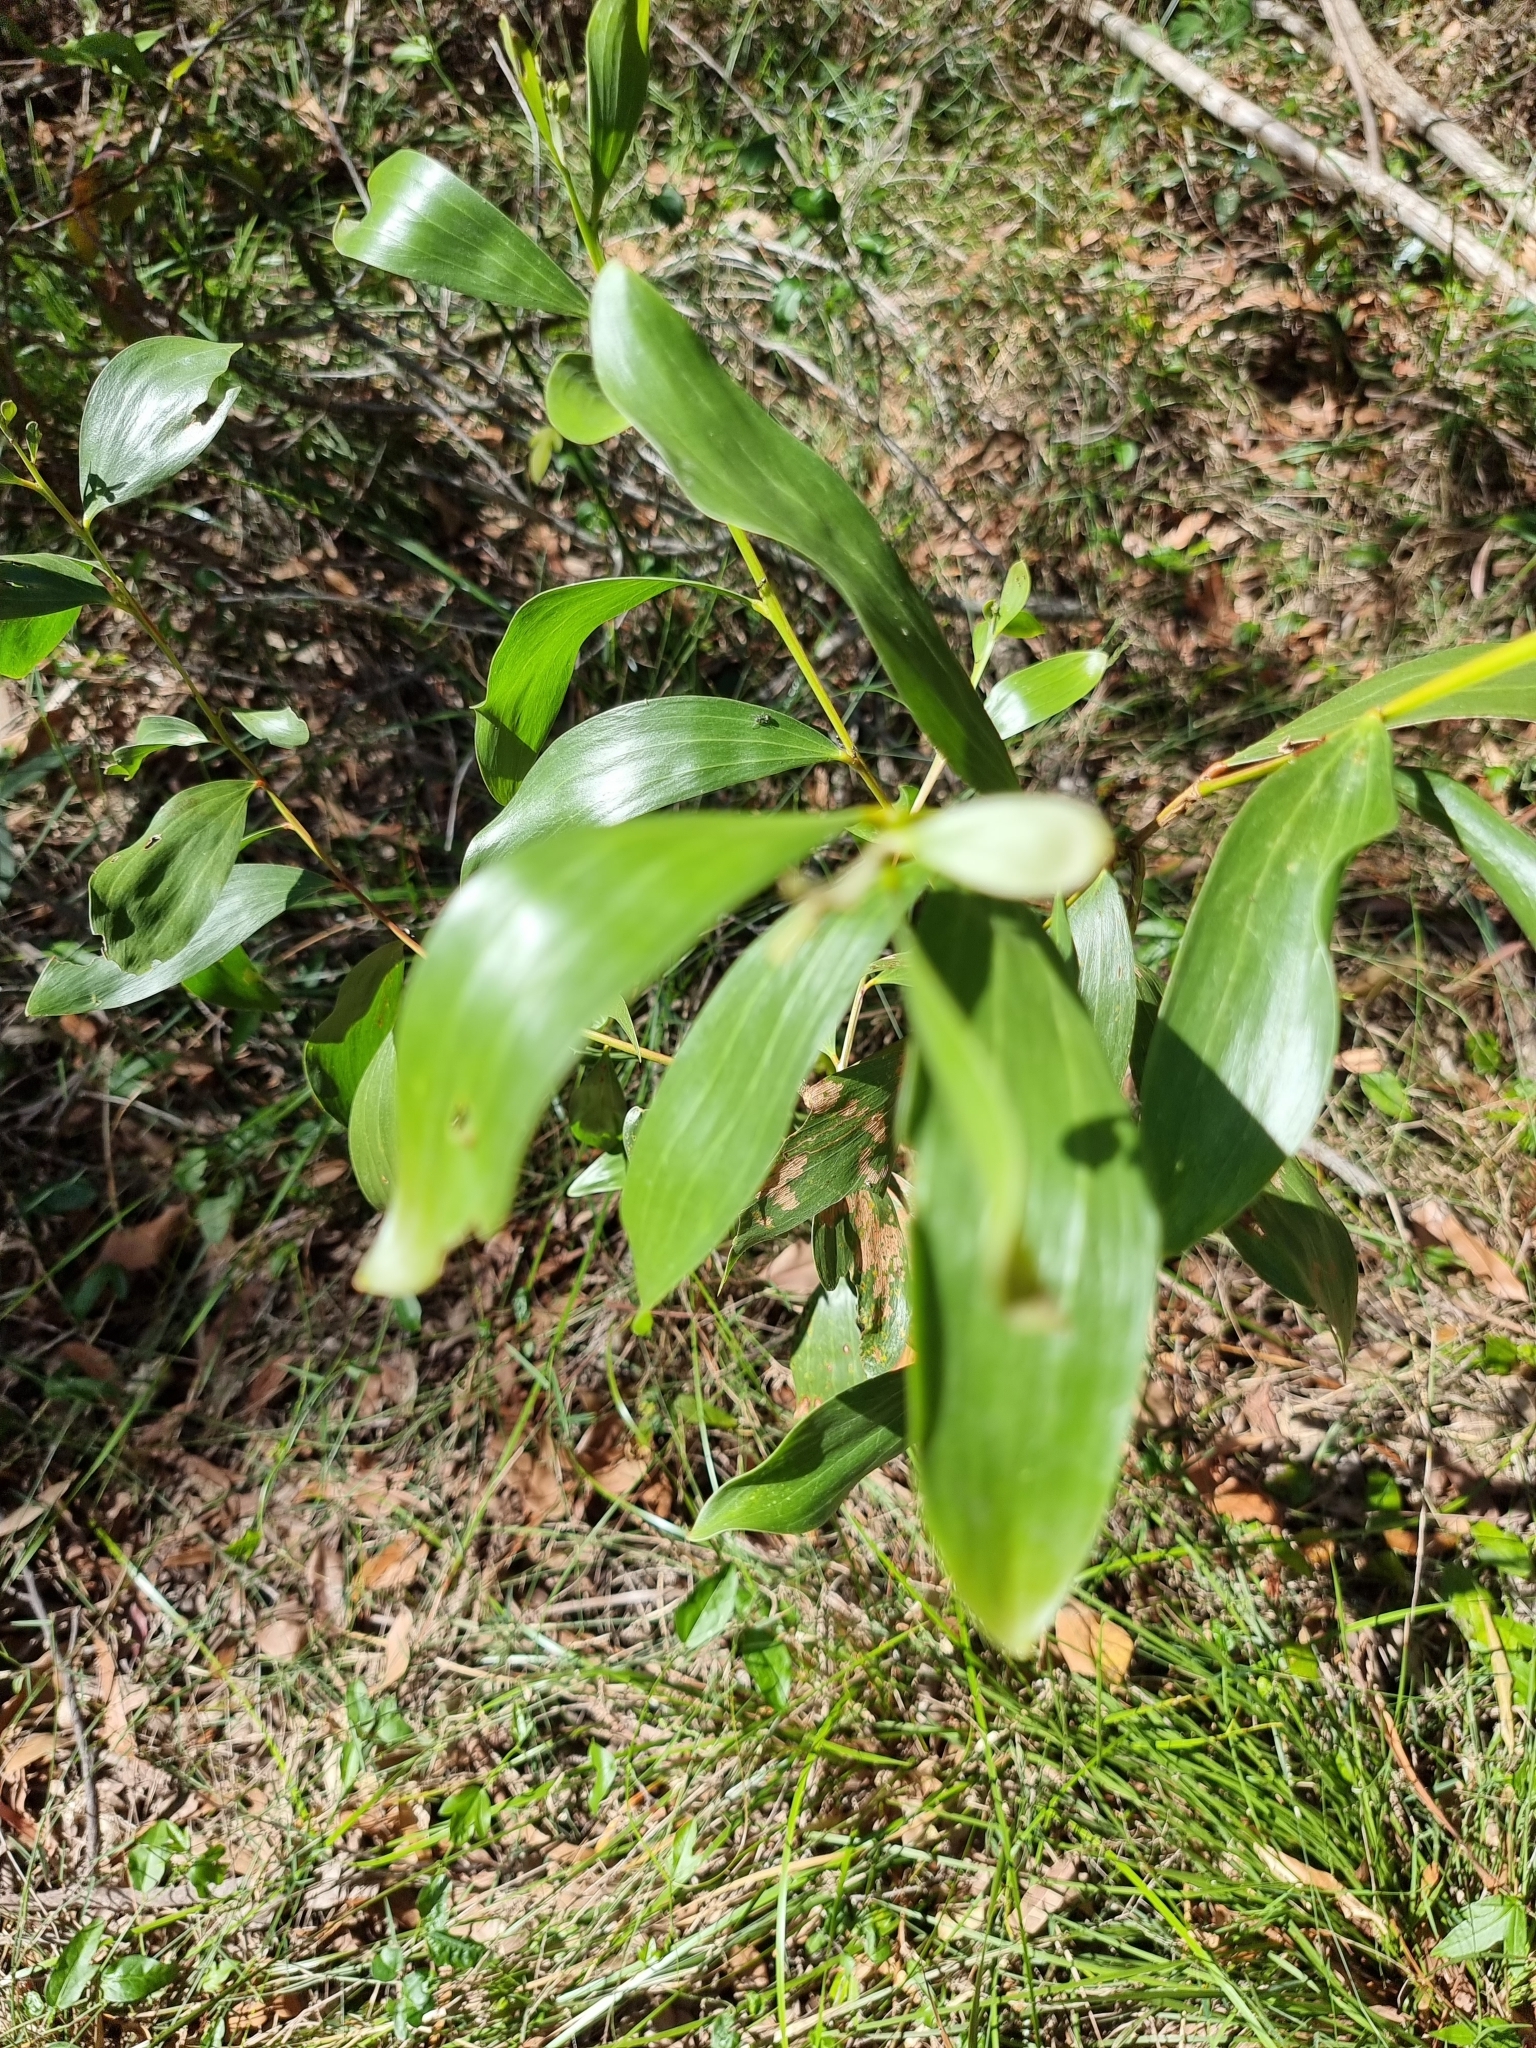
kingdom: Plantae
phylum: Tracheophyta
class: Magnoliopsida
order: Fabales
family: Fabaceae
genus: Acacia
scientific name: Acacia leiocalyx
